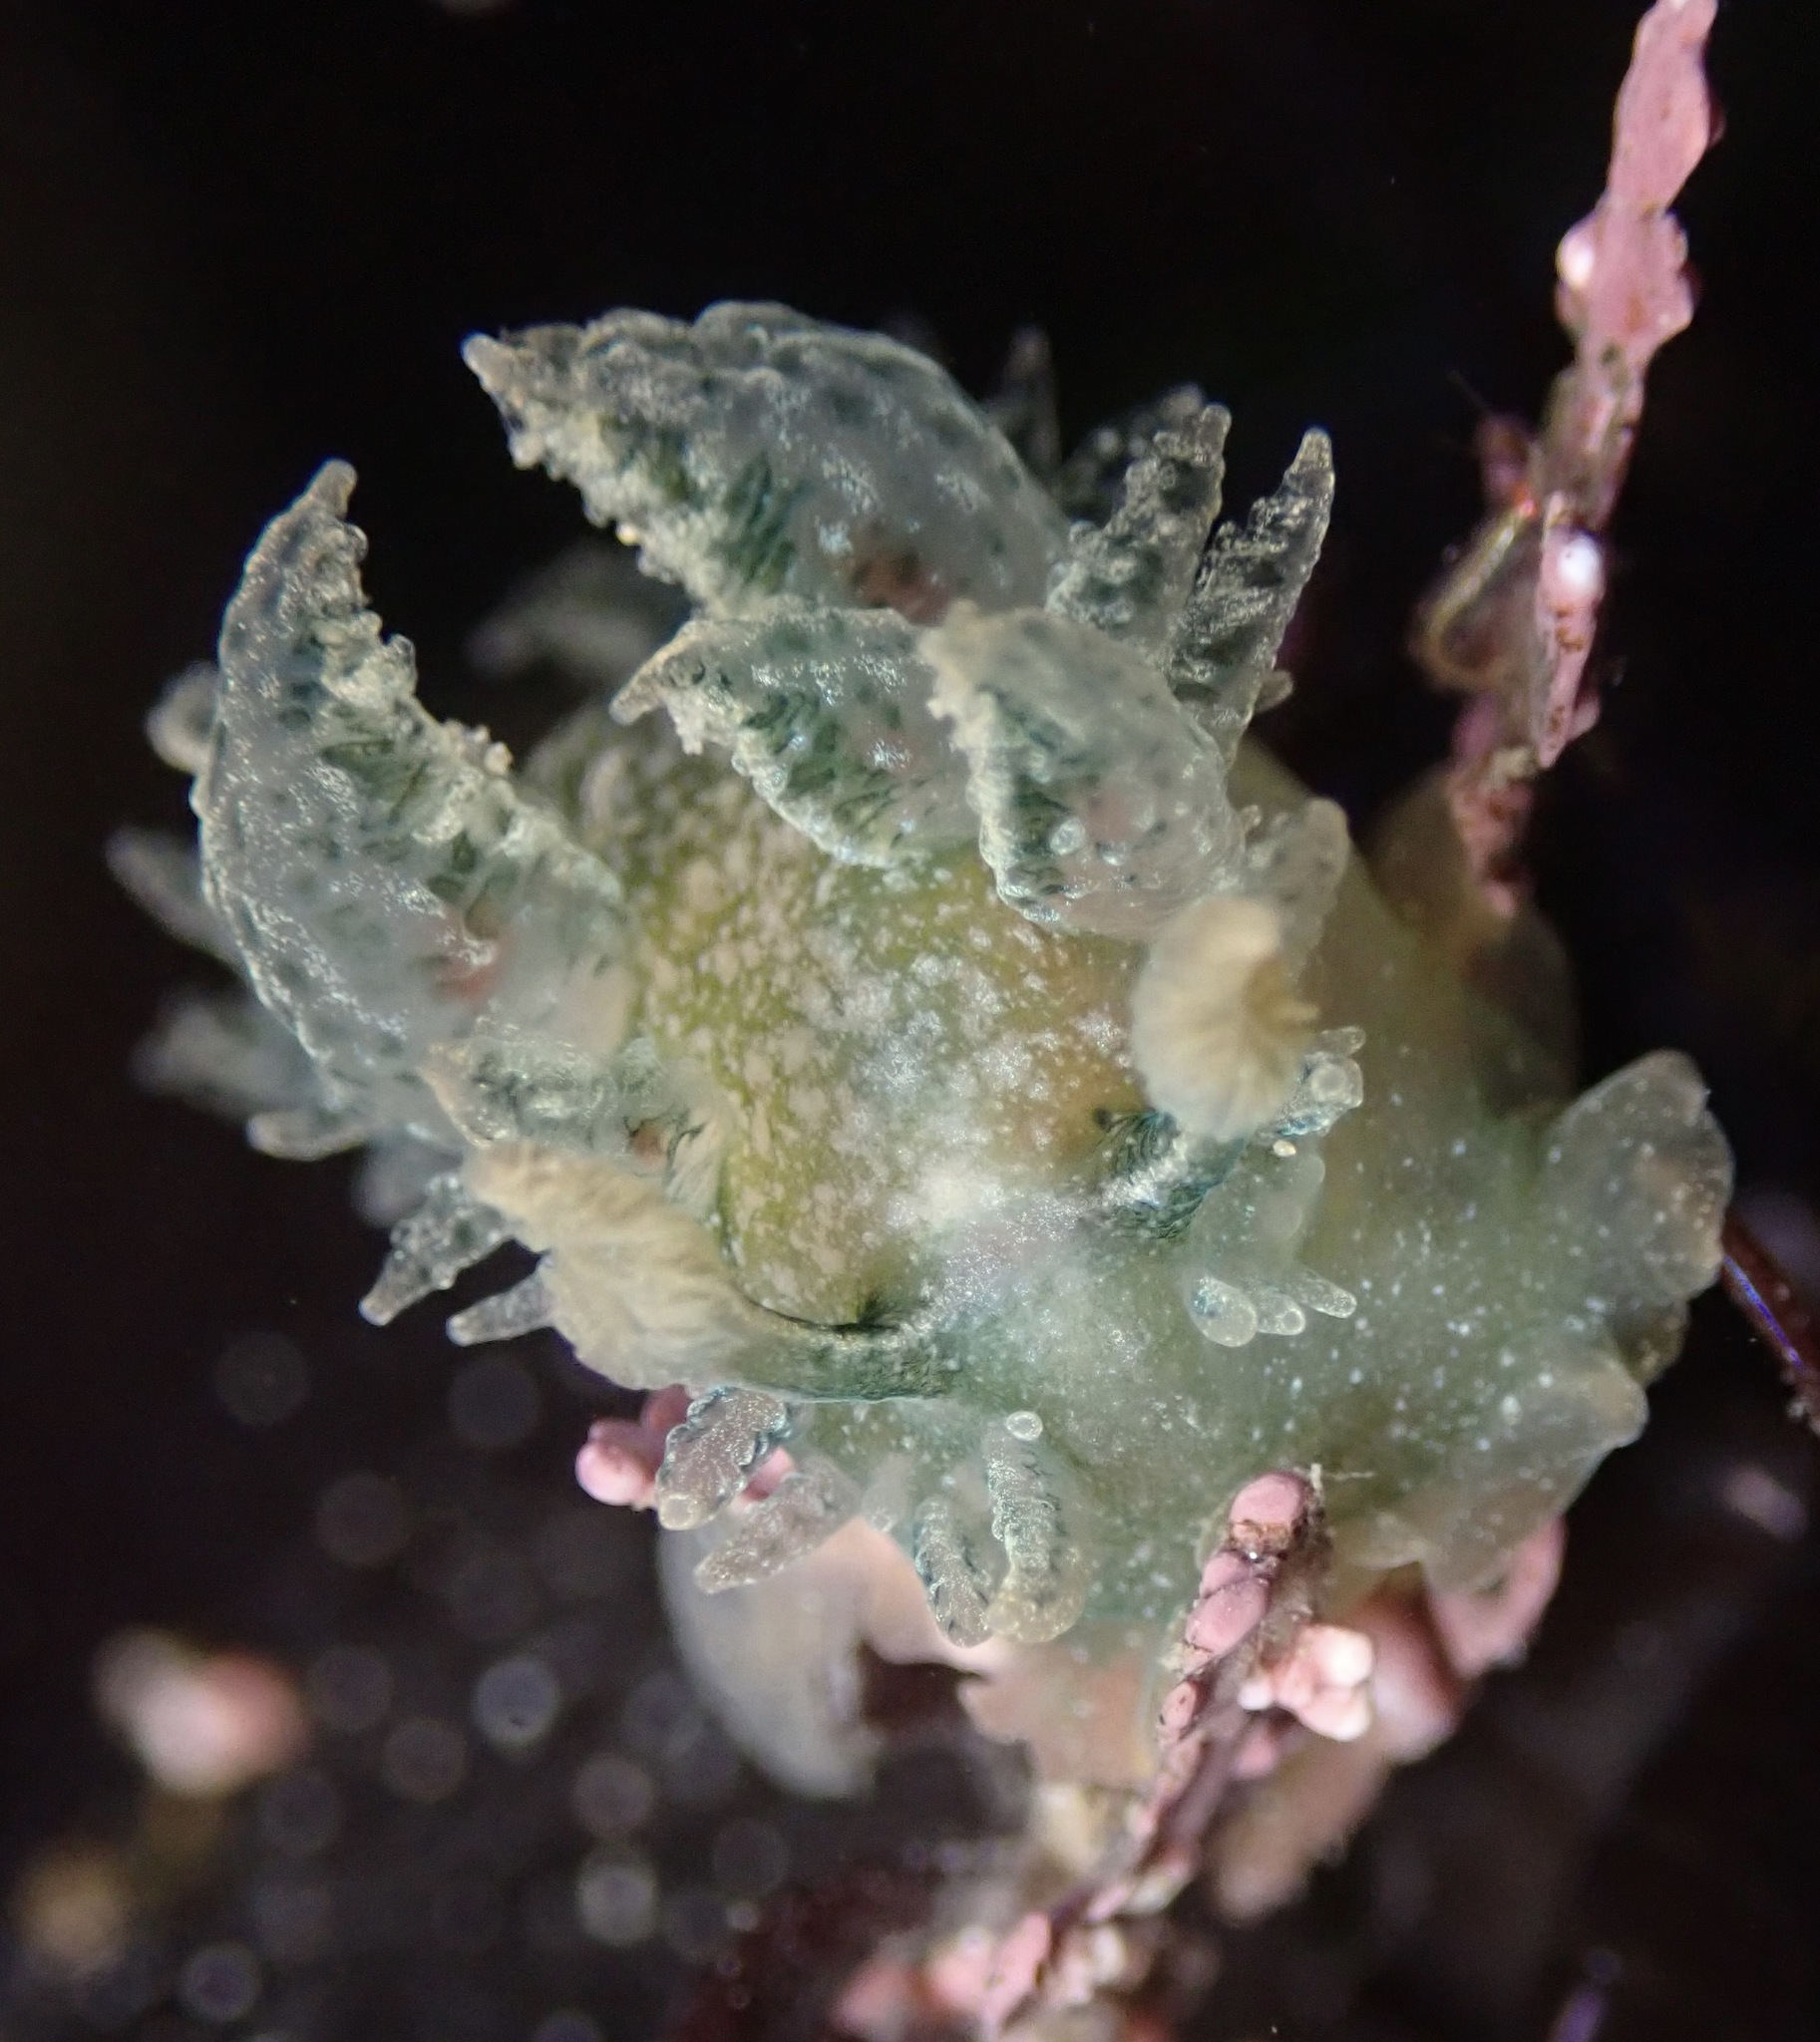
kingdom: Animalia
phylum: Mollusca
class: Gastropoda
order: Nudibranchia
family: Dironidae
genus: Dirona
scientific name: Dirona picta
